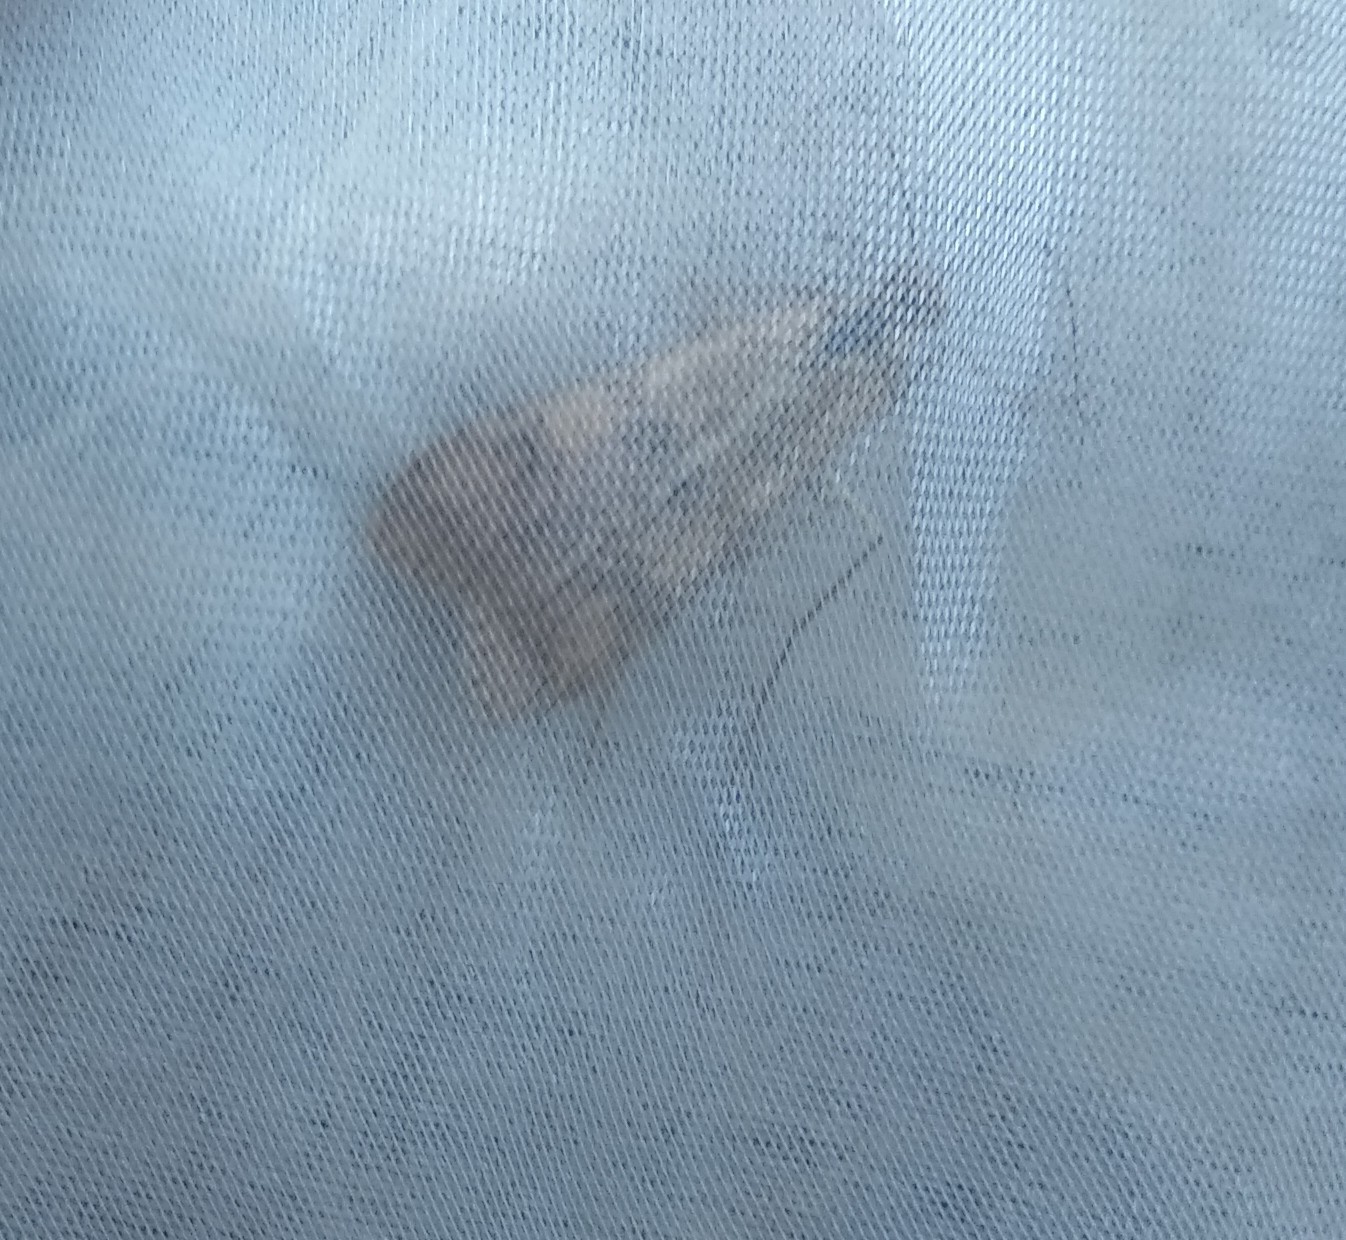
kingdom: Animalia
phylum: Arthropoda
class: Insecta
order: Lepidoptera
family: Crambidae
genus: Nomophila
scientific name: Nomophila noctuella
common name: Rush veneer
